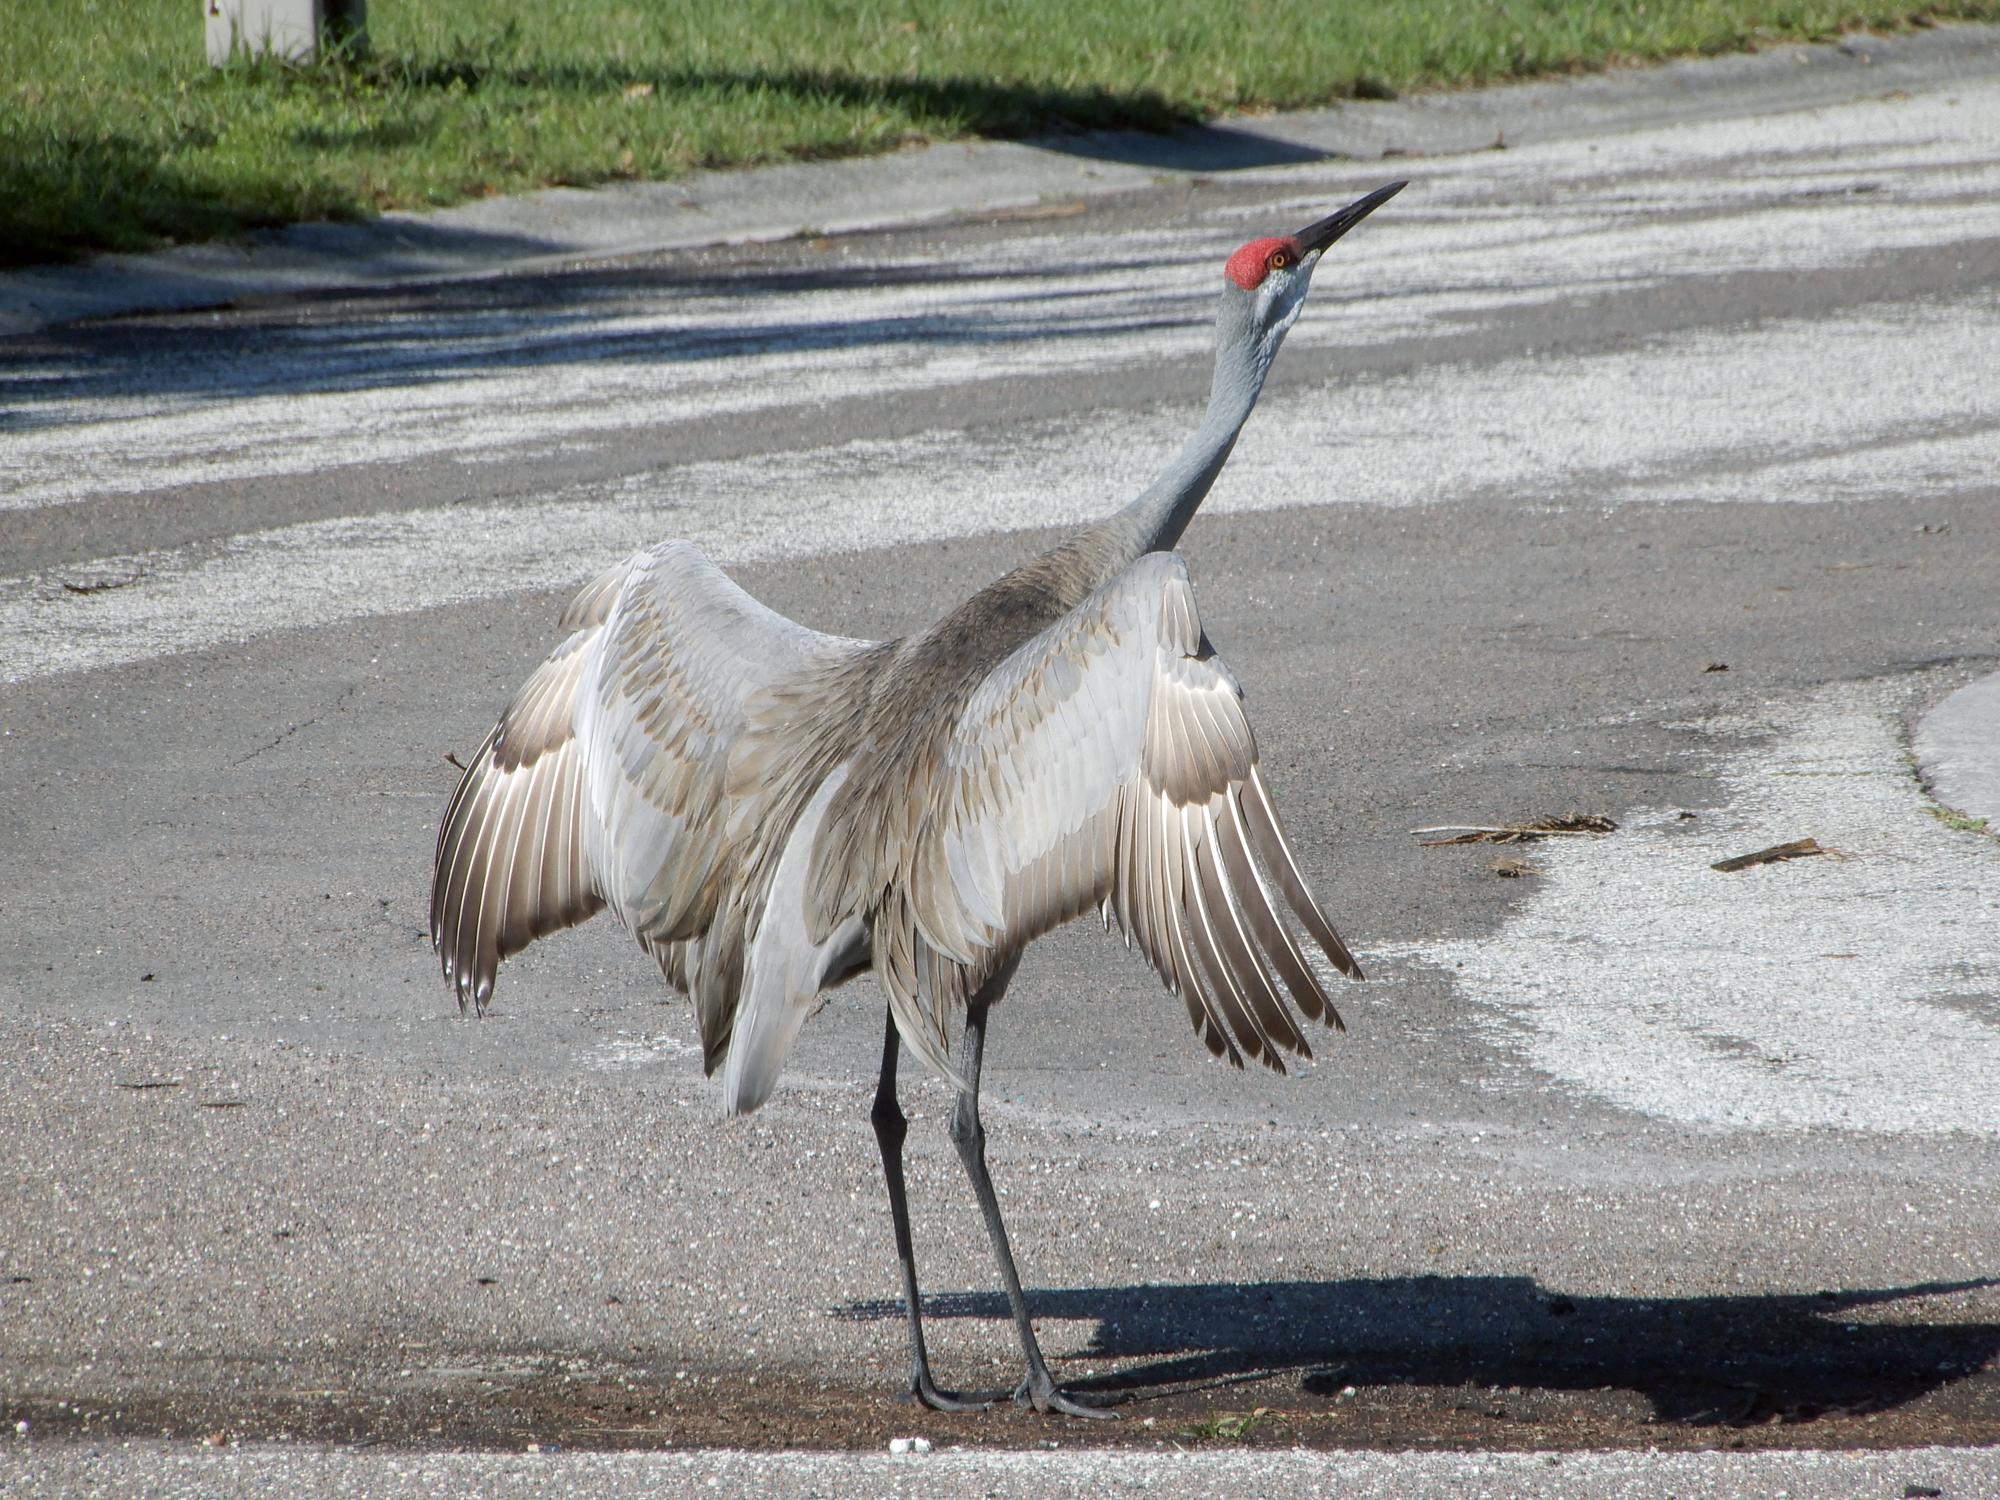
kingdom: Animalia
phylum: Chordata
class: Aves
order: Gruiformes
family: Gruidae
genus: Grus
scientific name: Grus canadensis
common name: Sandhill crane
